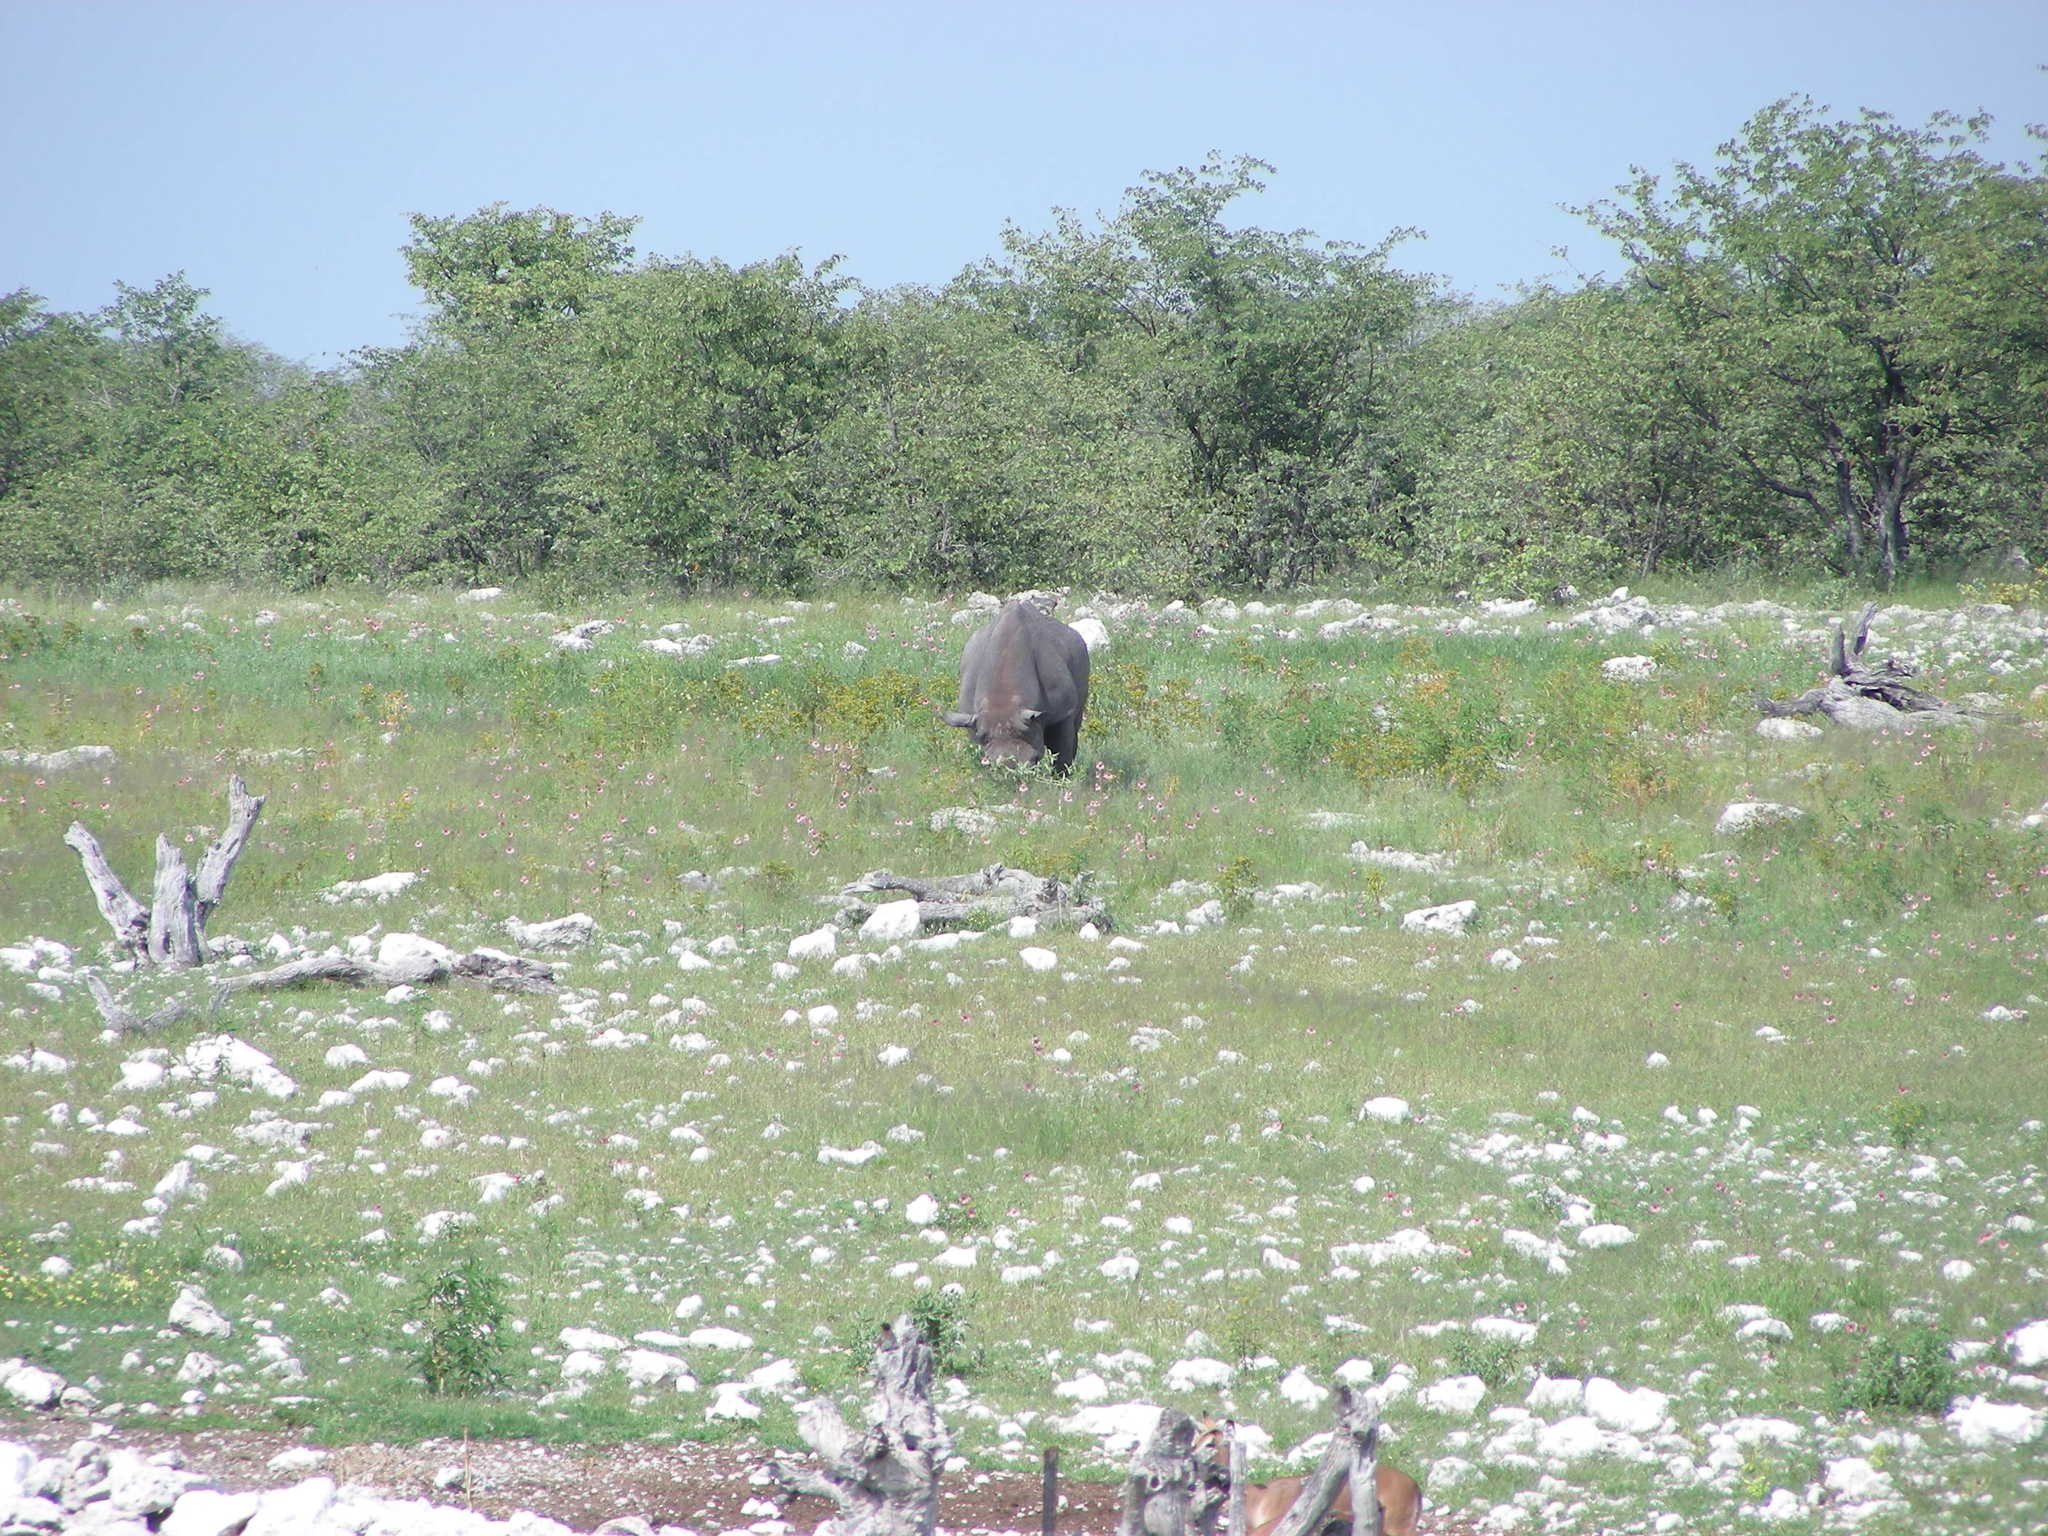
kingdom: Animalia
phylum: Chordata
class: Mammalia
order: Perissodactyla
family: Rhinocerotidae
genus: Diceros
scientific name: Diceros bicornis
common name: Black rhinoceros
